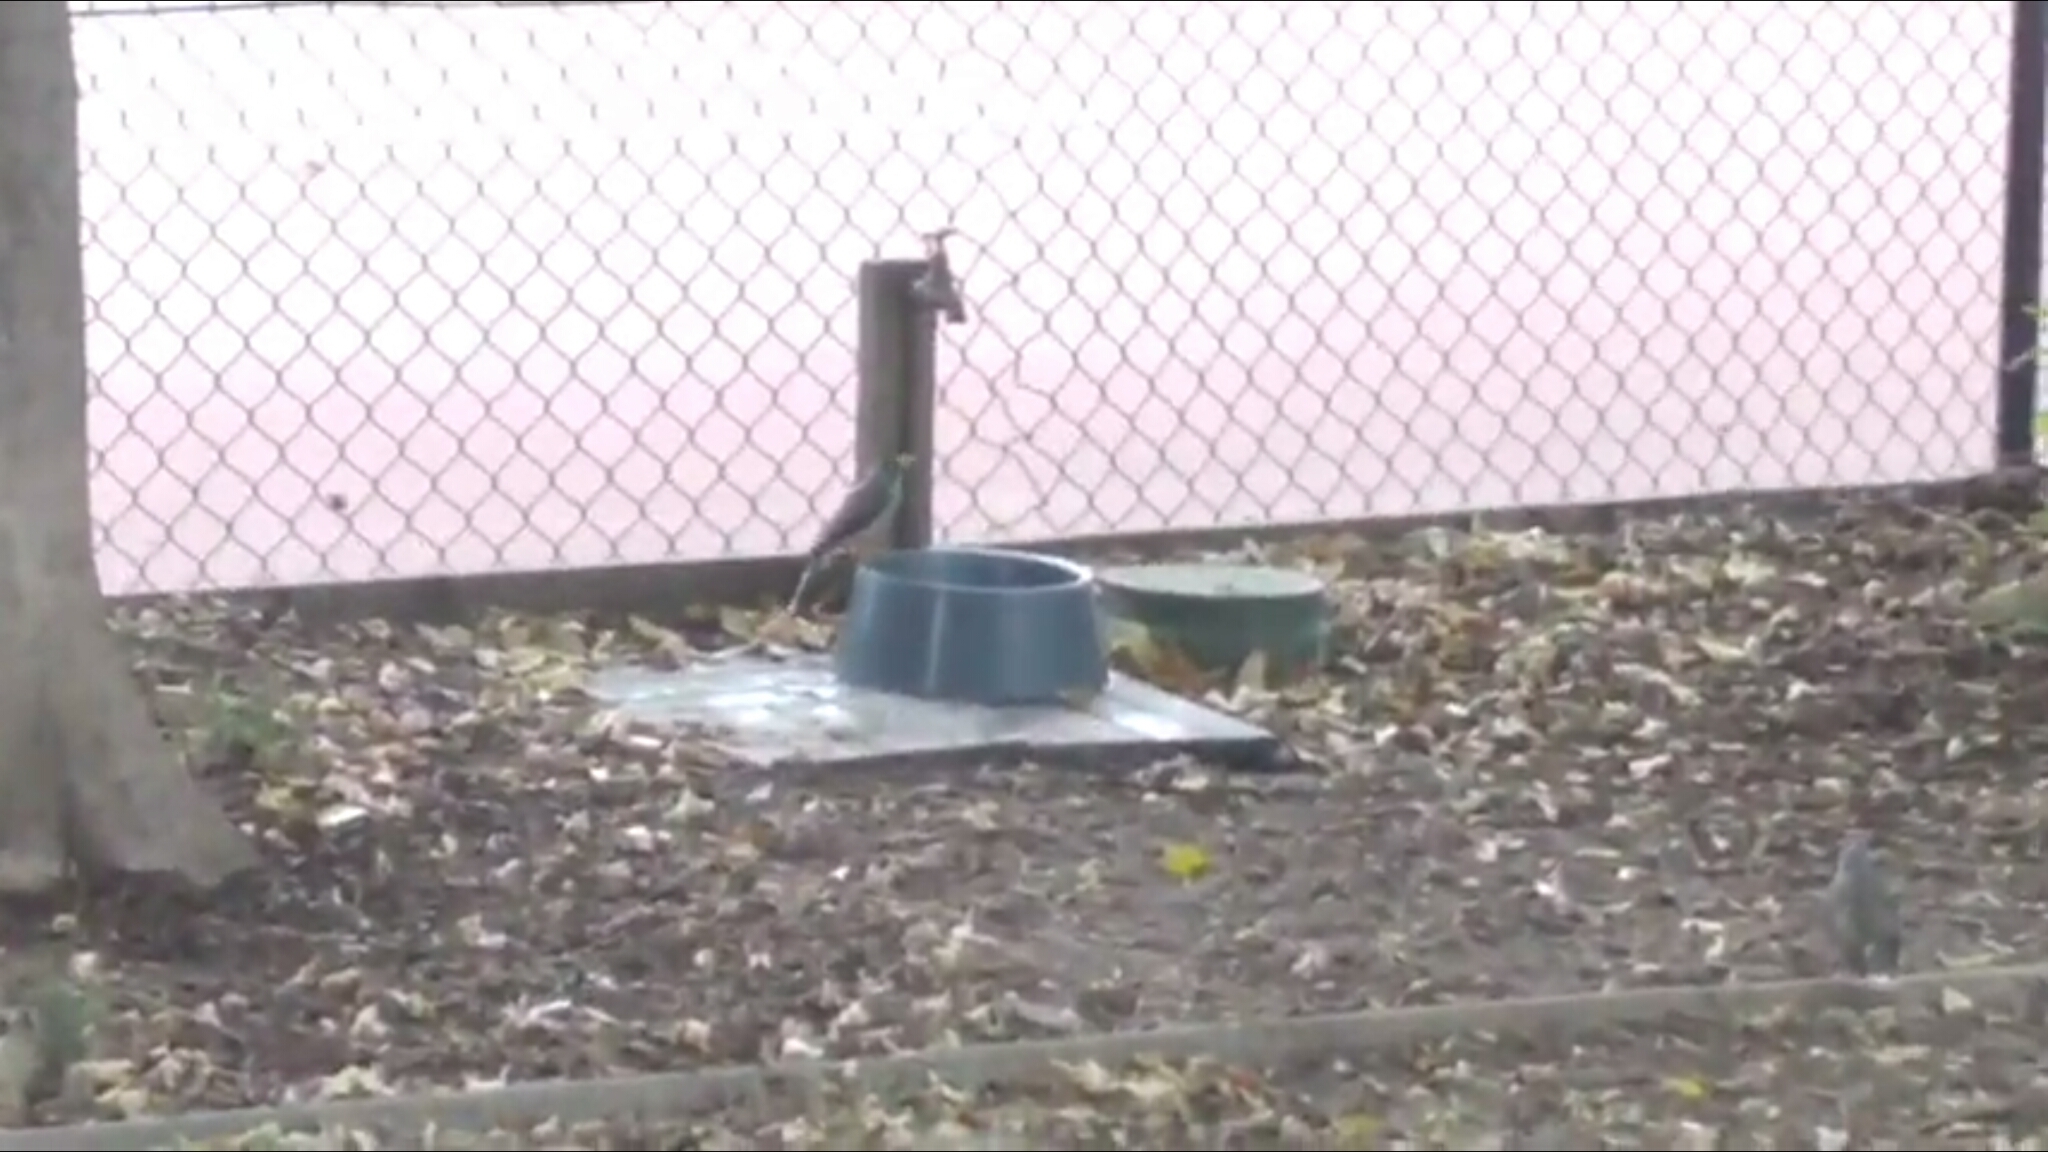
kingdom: Animalia
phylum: Chordata
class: Aves
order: Passeriformes
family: Meliphagidae
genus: Manorina
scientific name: Manorina melanocephala
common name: Noisy miner
